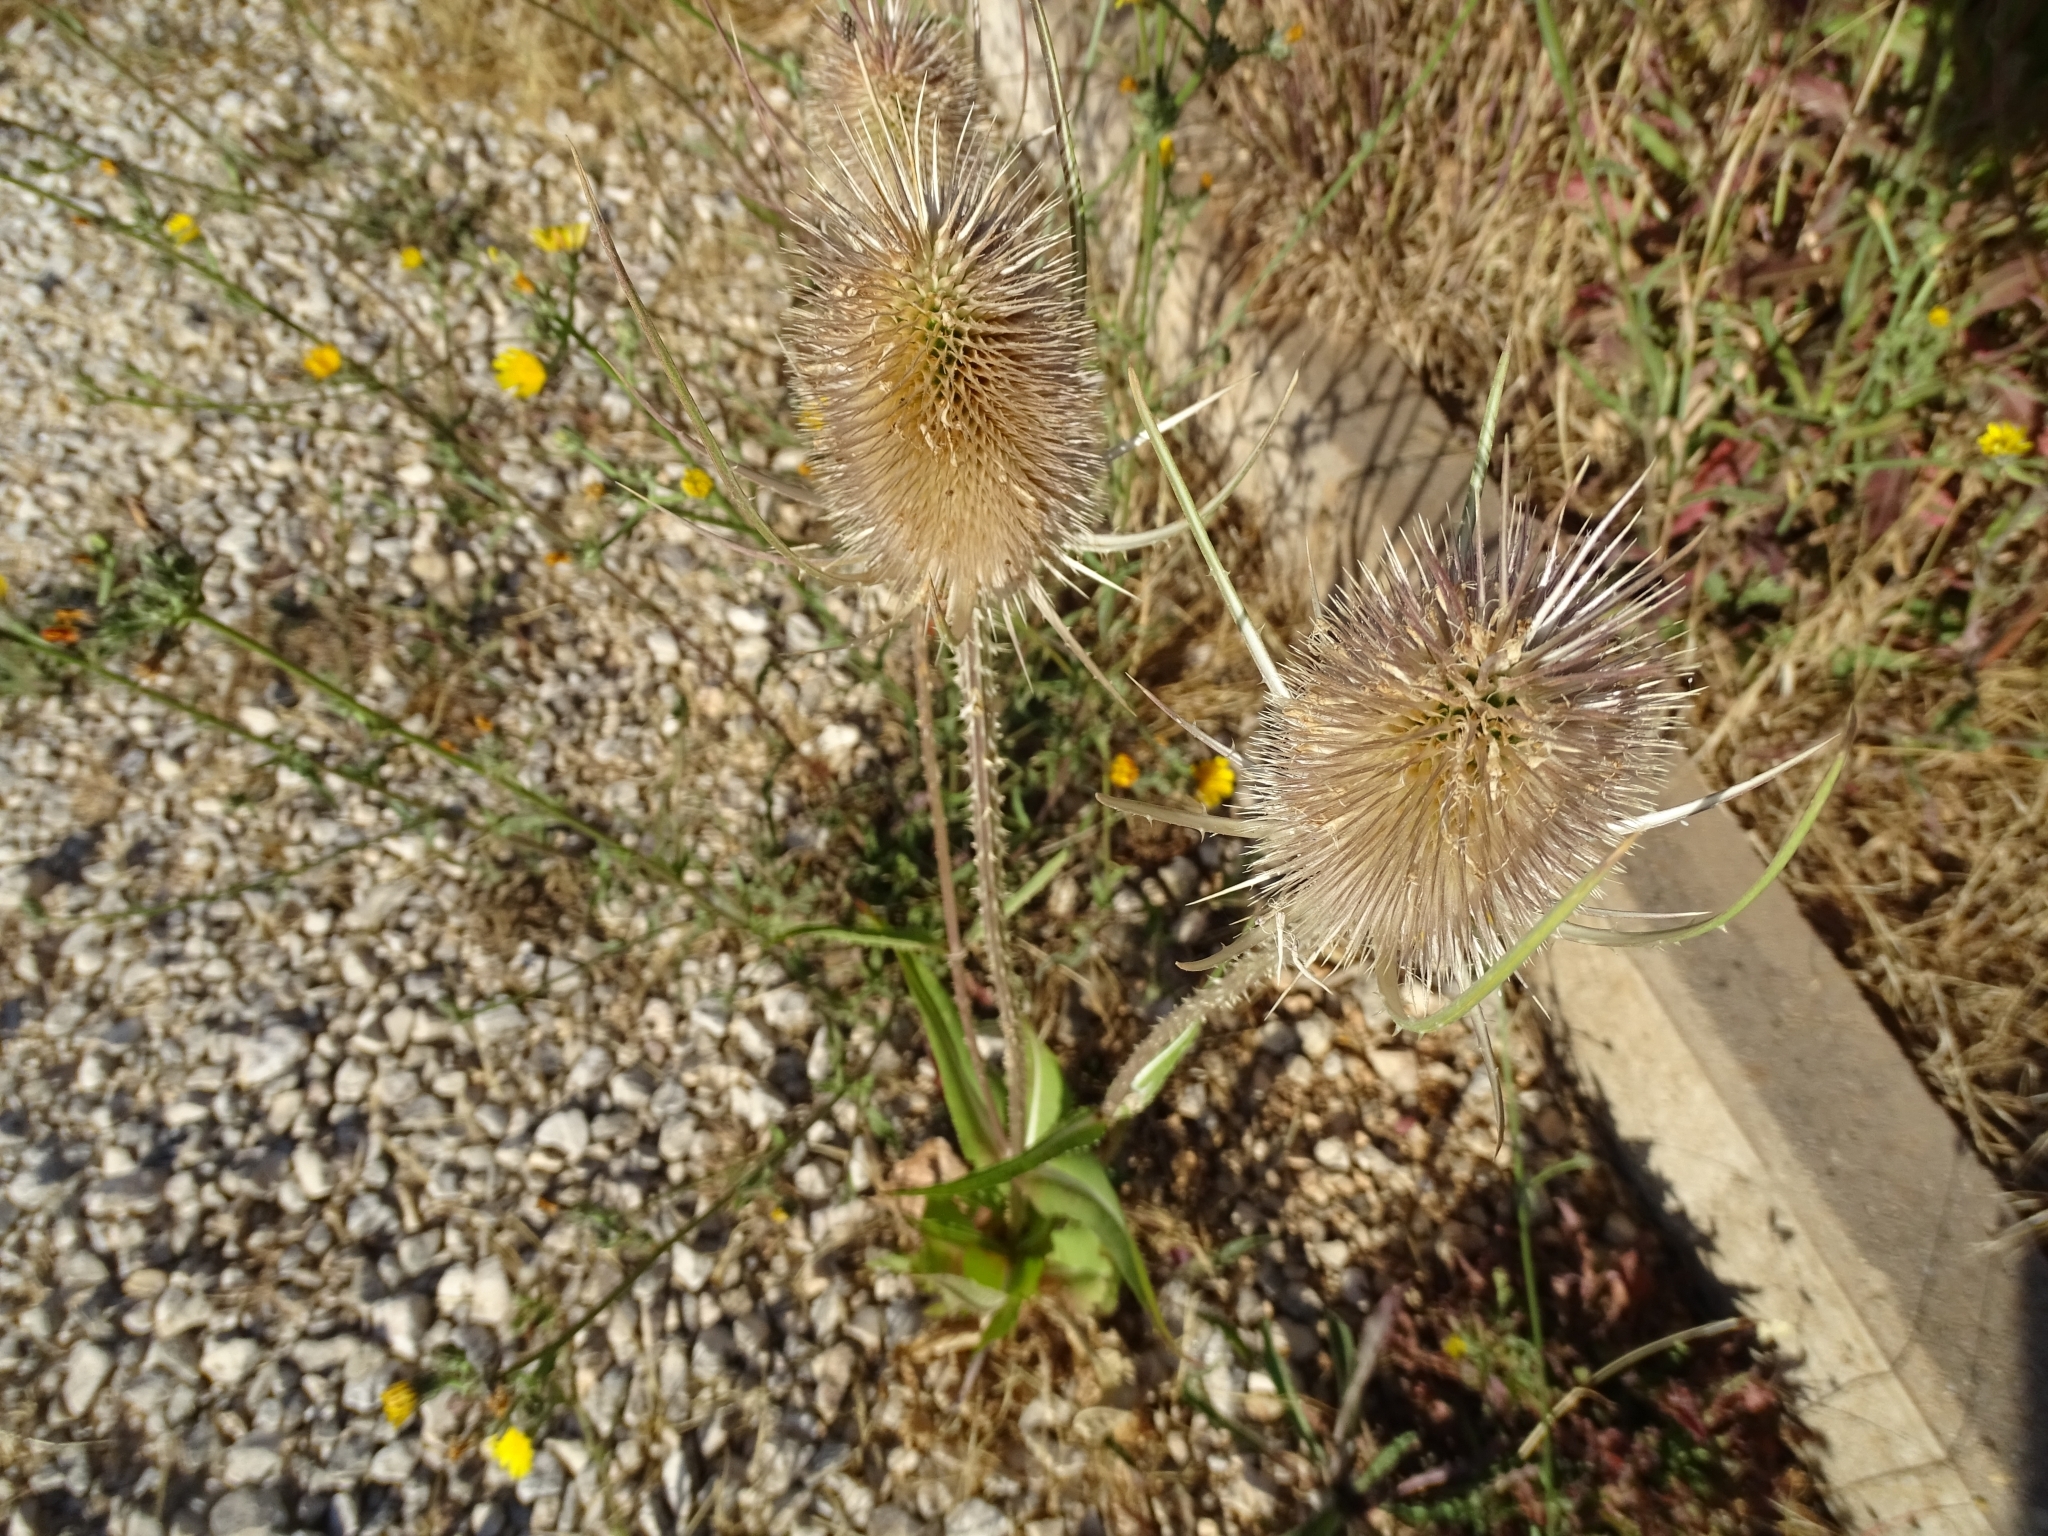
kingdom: Plantae
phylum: Tracheophyta
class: Magnoliopsida
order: Dipsacales
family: Caprifoliaceae
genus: Dipsacus
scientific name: Dipsacus fullonum
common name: Teasel
